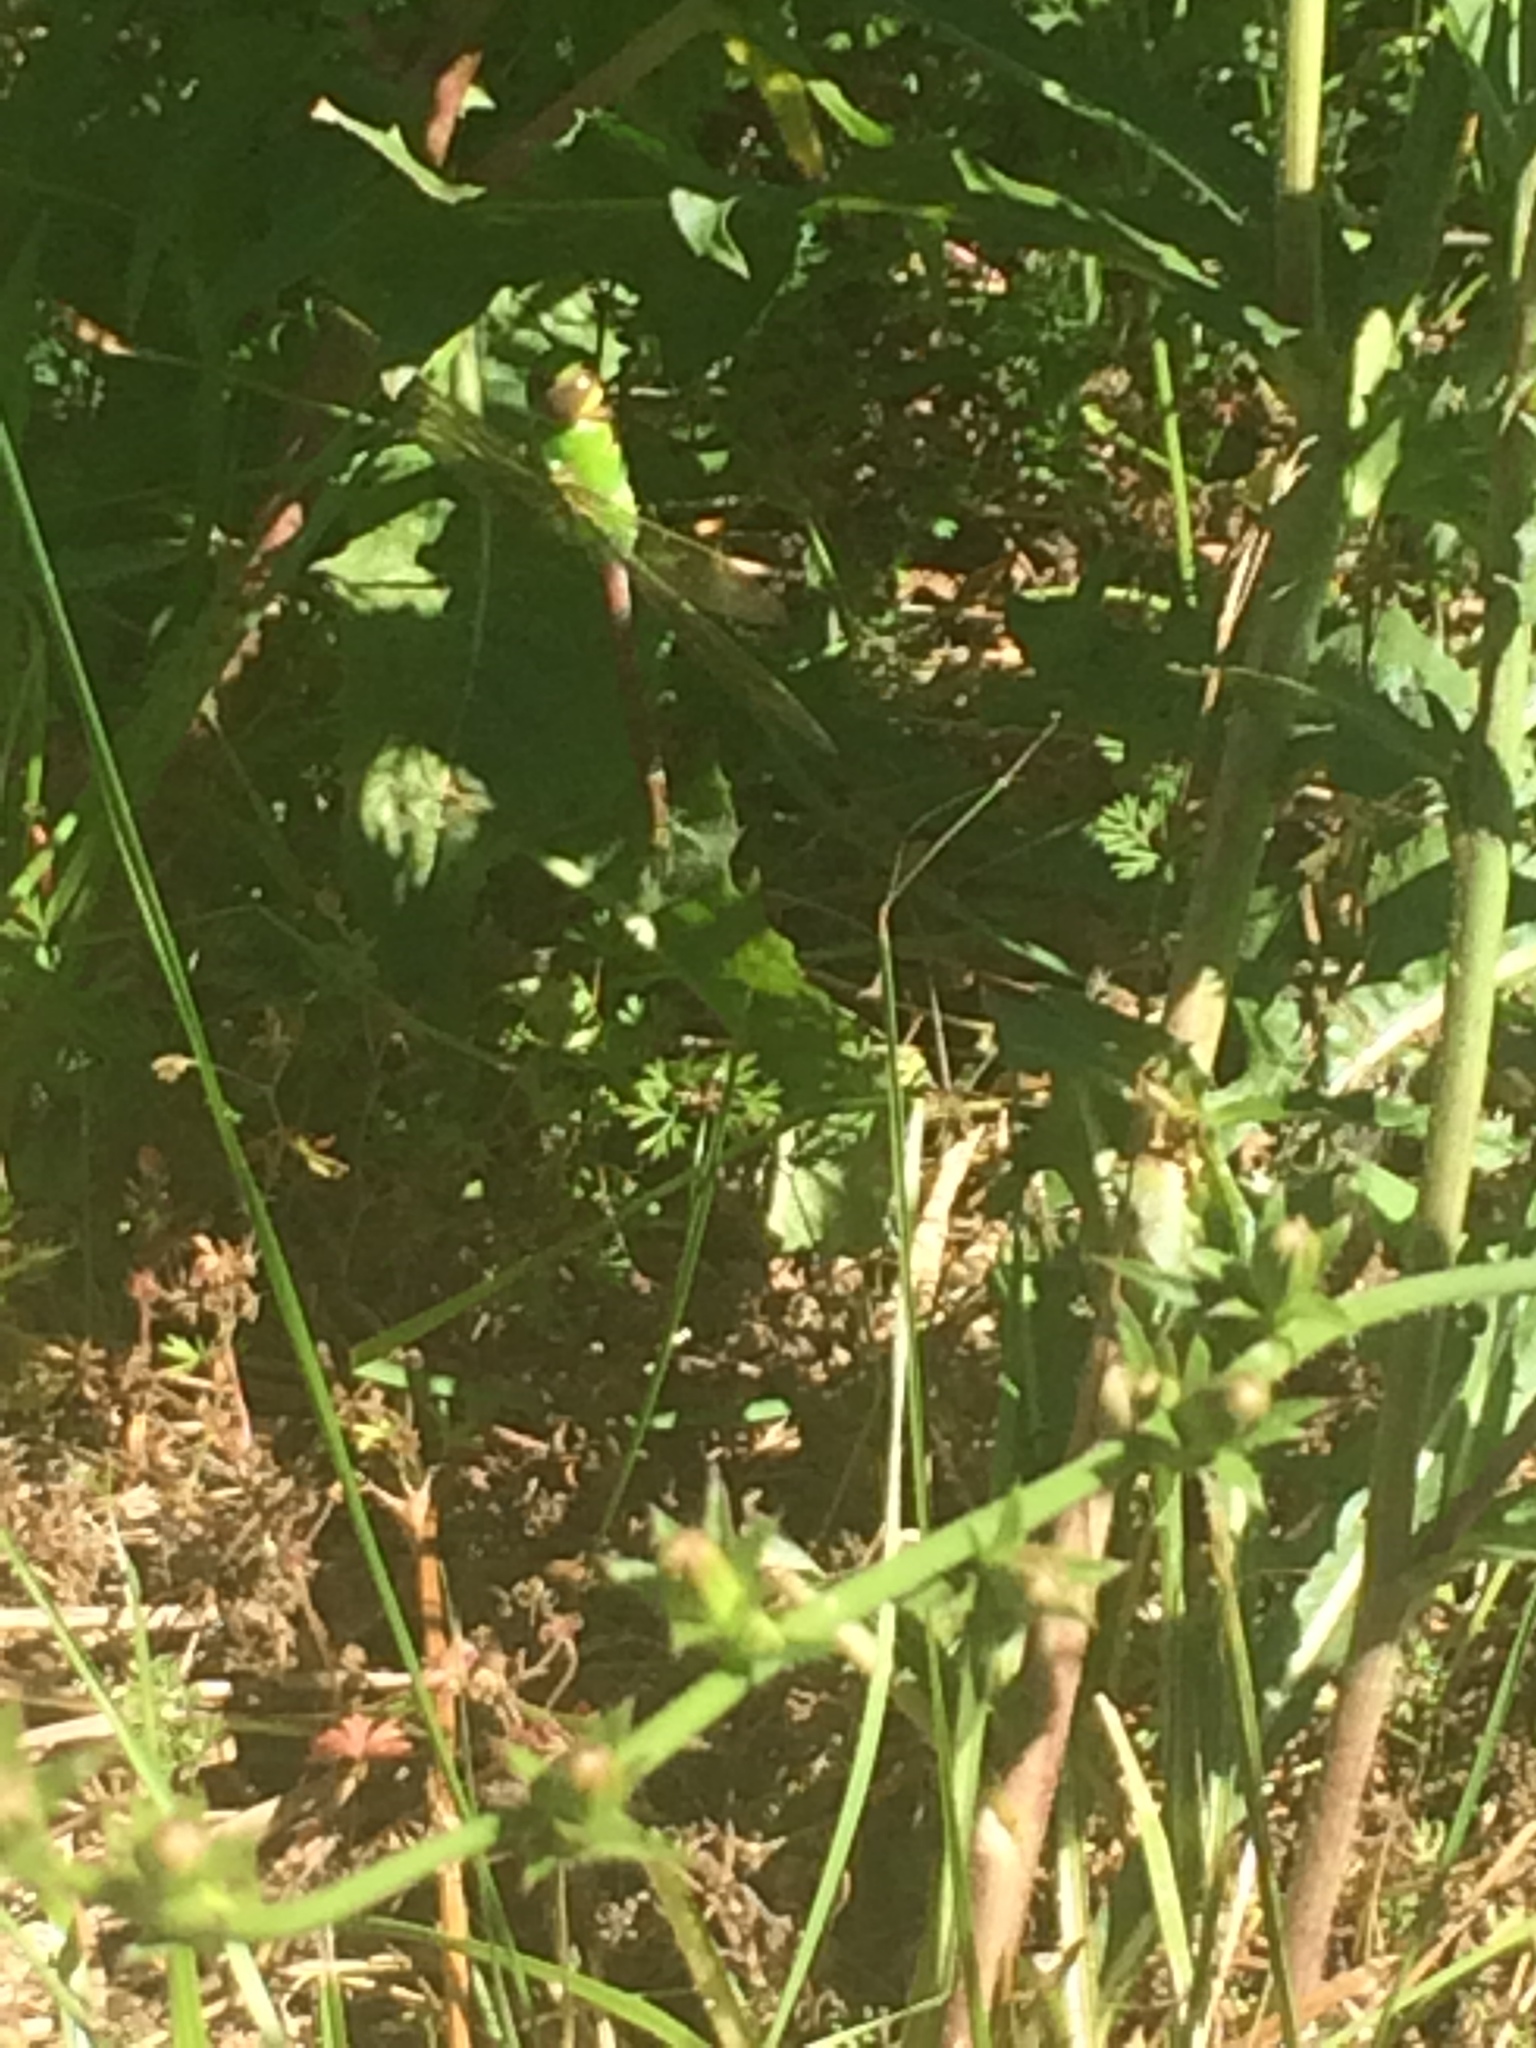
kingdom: Animalia
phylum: Arthropoda
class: Insecta
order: Odonata
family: Aeshnidae
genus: Anax
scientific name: Anax junius
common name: Common green darner
